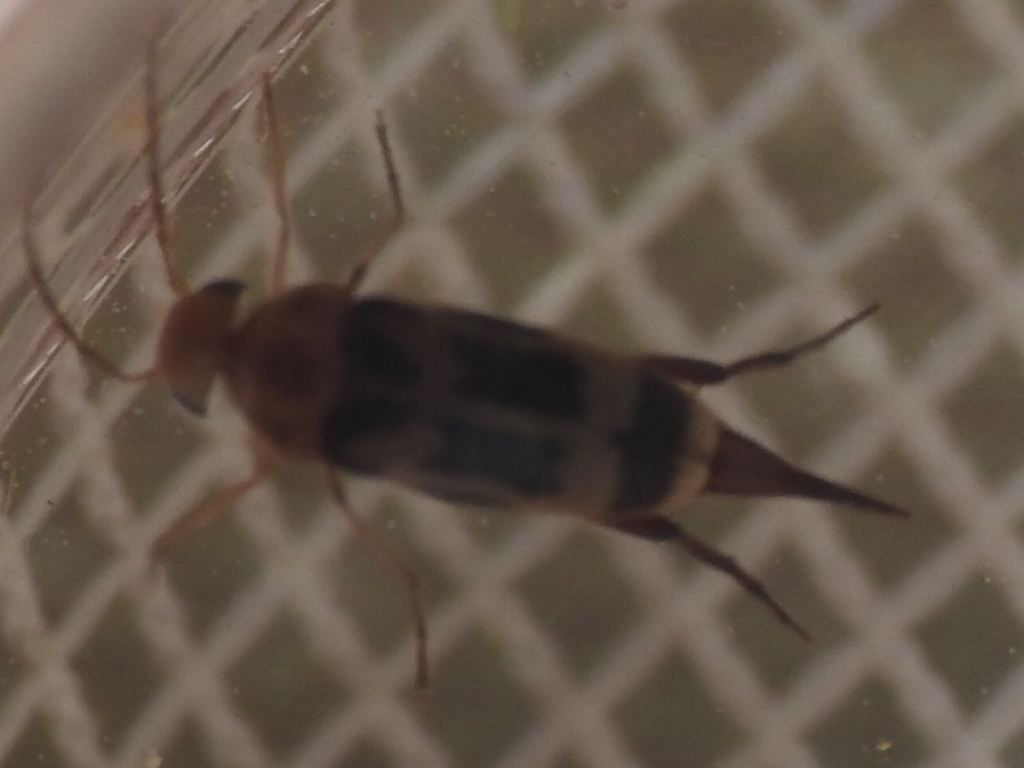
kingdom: Animalia
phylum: Arthropoda
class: Insecta
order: Coleoptera
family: Mordellidae
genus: Falsomordellistena
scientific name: Falsomordellistena hebraica
